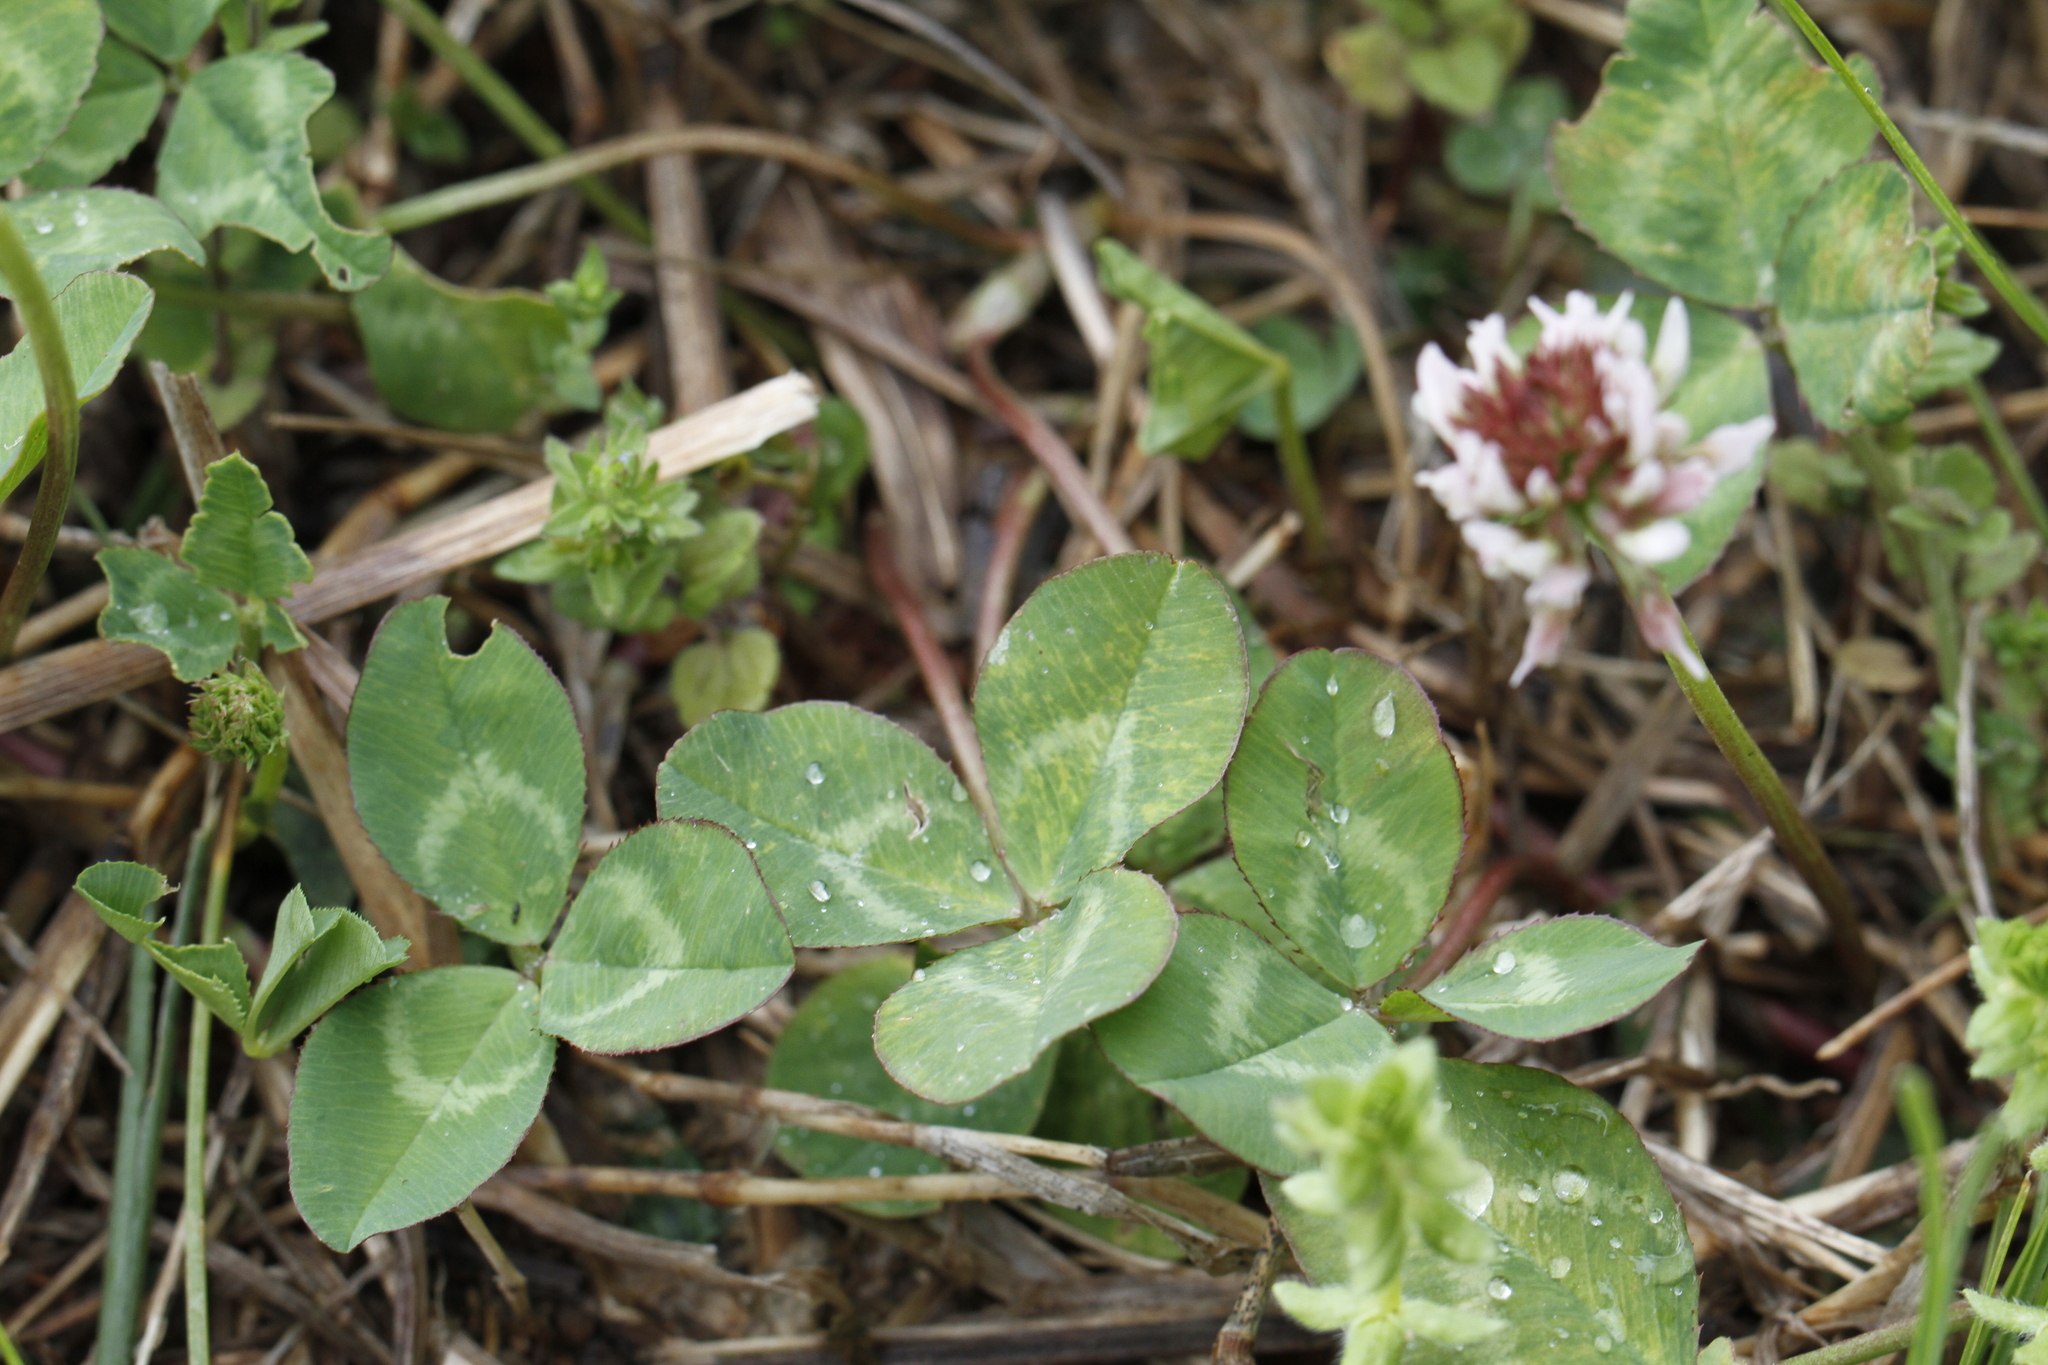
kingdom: Plantae
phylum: Tracheophyta
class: Magnoliopsida
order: Fabales
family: Fabaceae
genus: Trifolium
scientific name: Trifolium repens
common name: White clover
